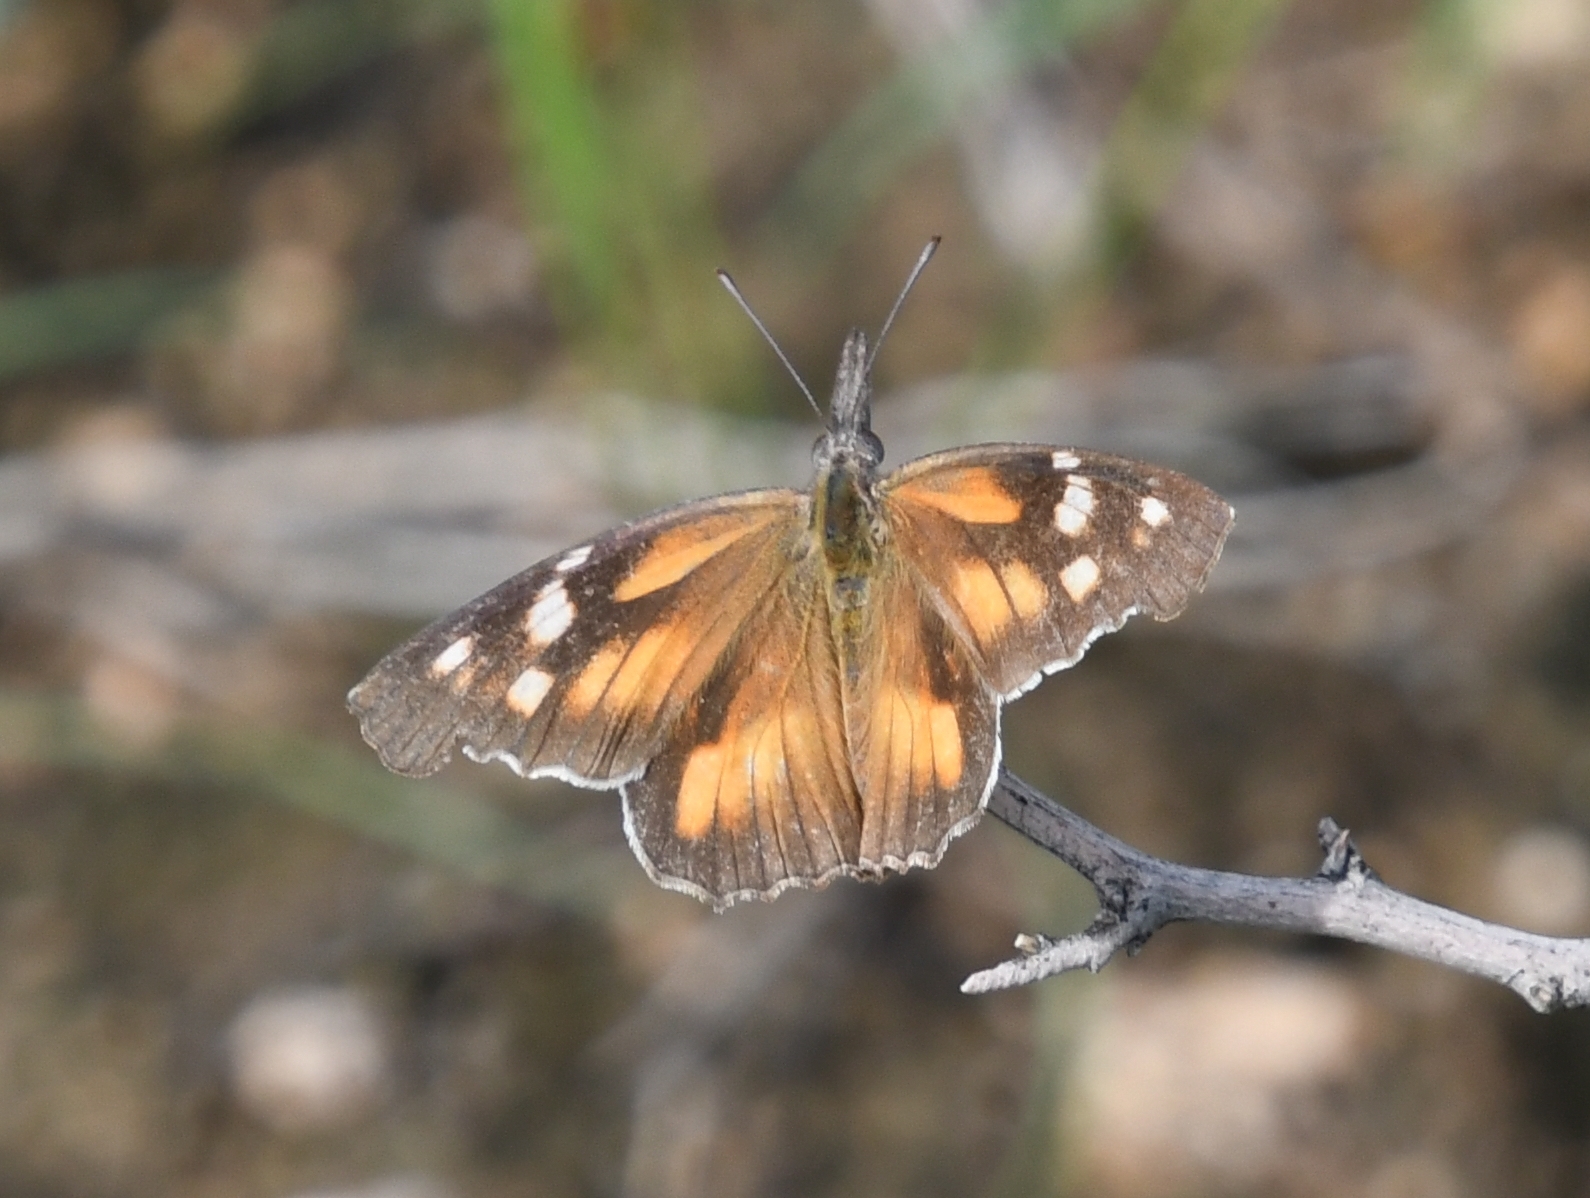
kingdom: Animalia
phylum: Arthropoda
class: Insecta
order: Lepidoptera
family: Nymphalidae
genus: Libytheana
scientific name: Libytheana carinenta
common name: American snout
